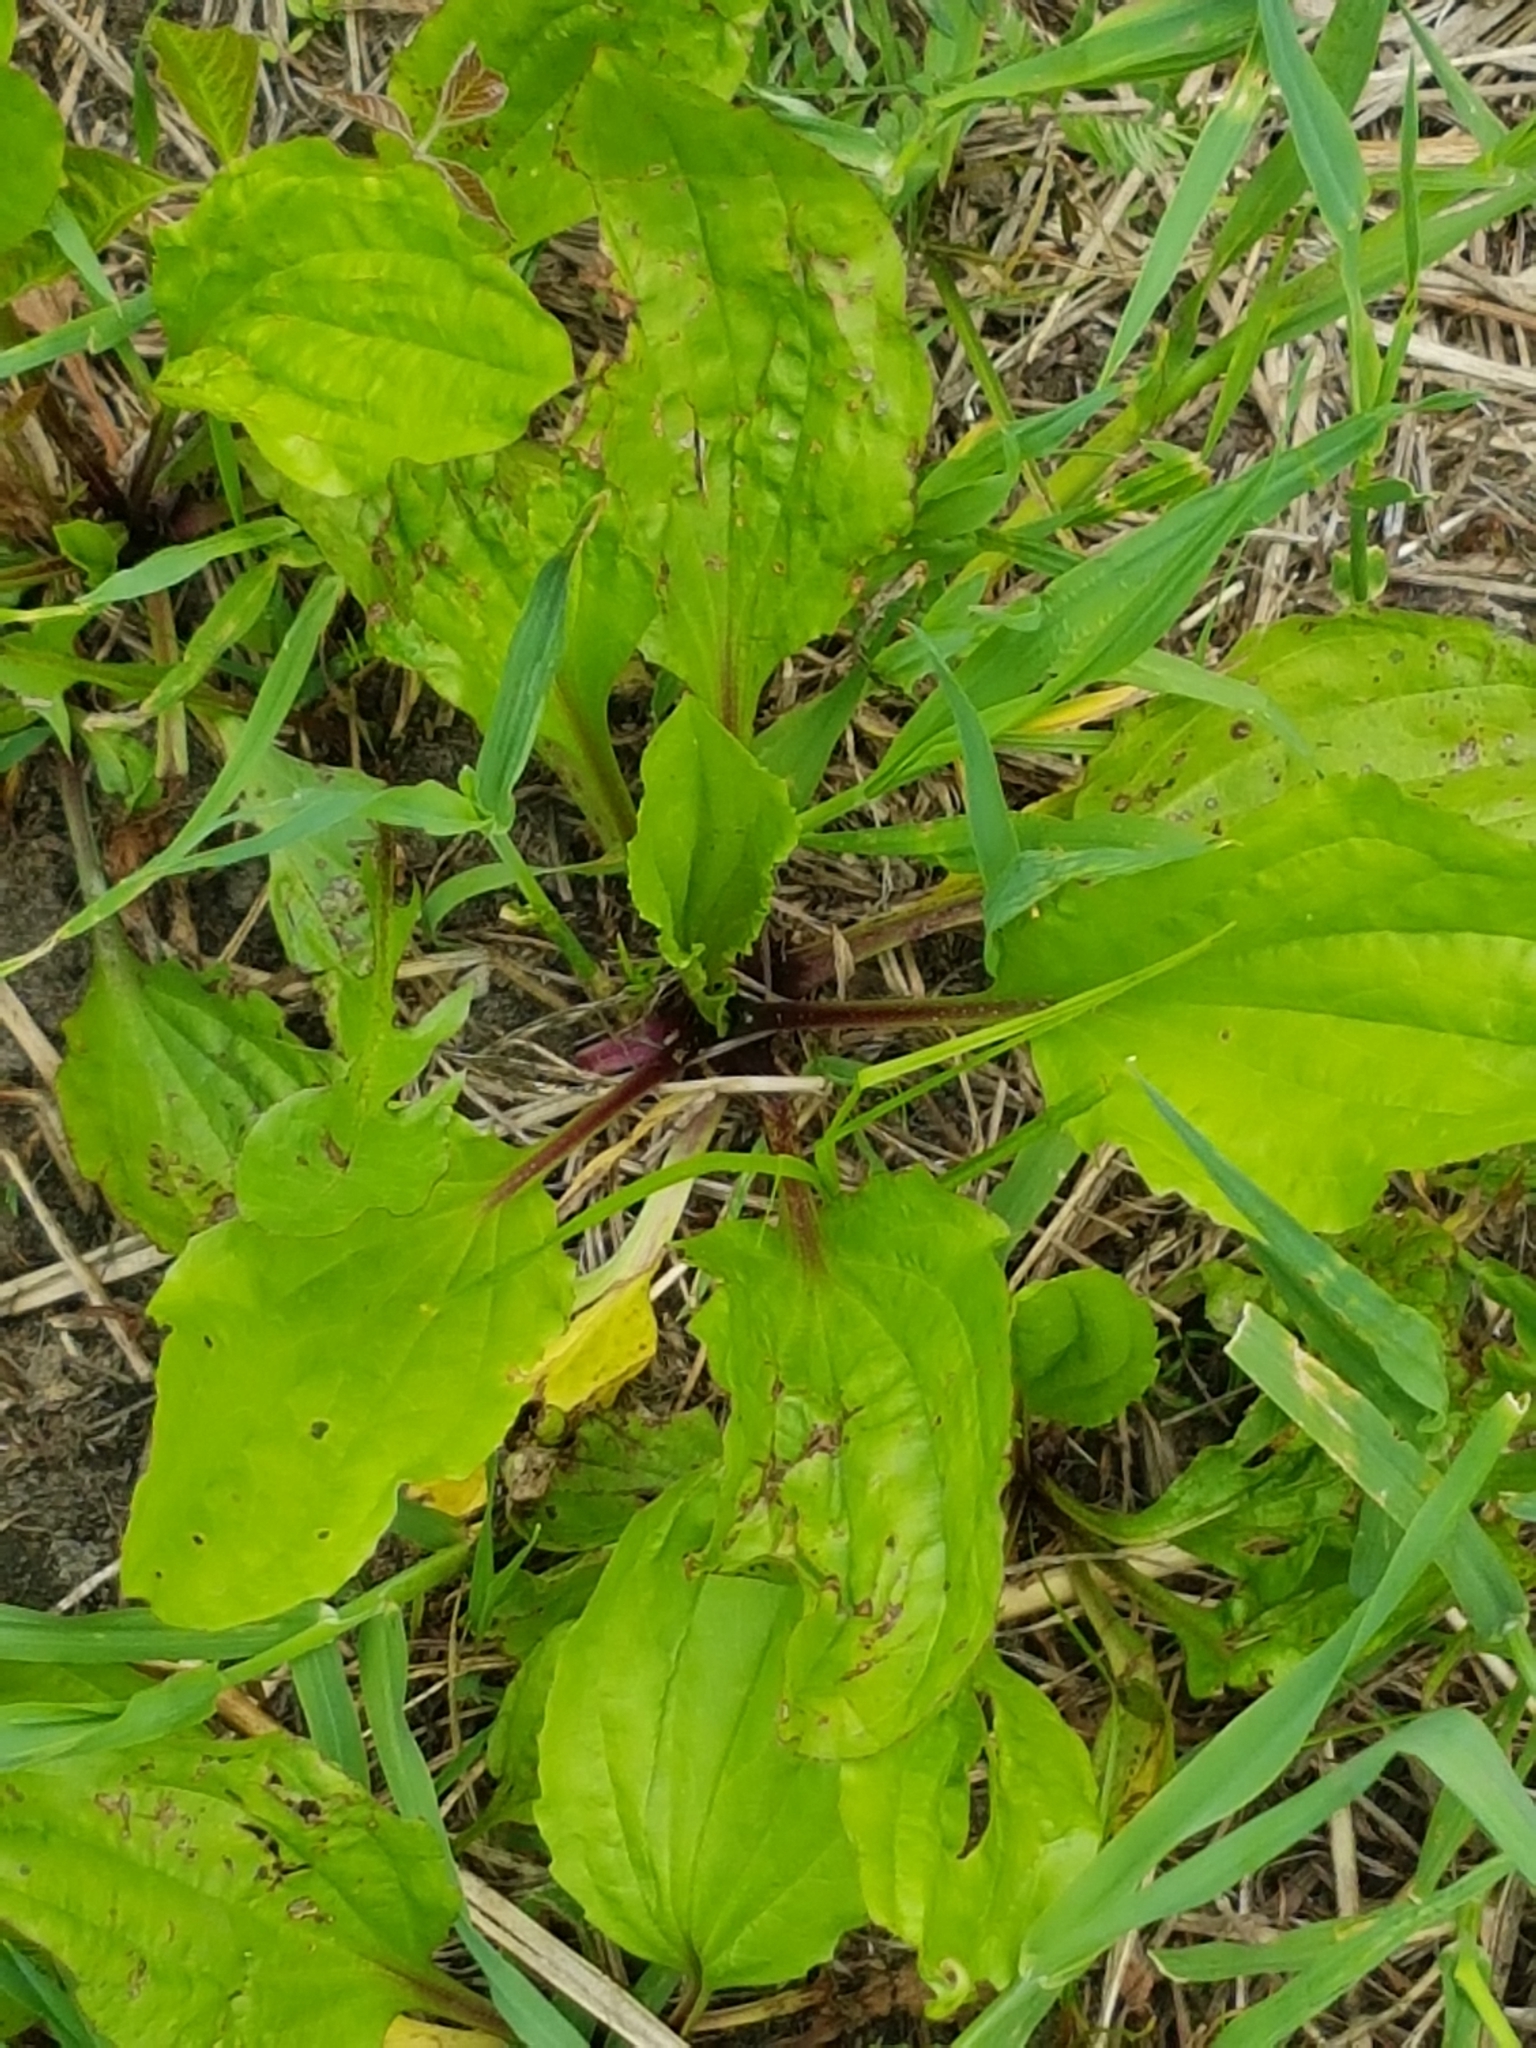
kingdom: Plantae
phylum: Tracheophyta
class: Magnoliopsida
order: Lamiales
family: Plantaginaceae
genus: Plantago
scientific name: Plantago rugelii
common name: American plantain
